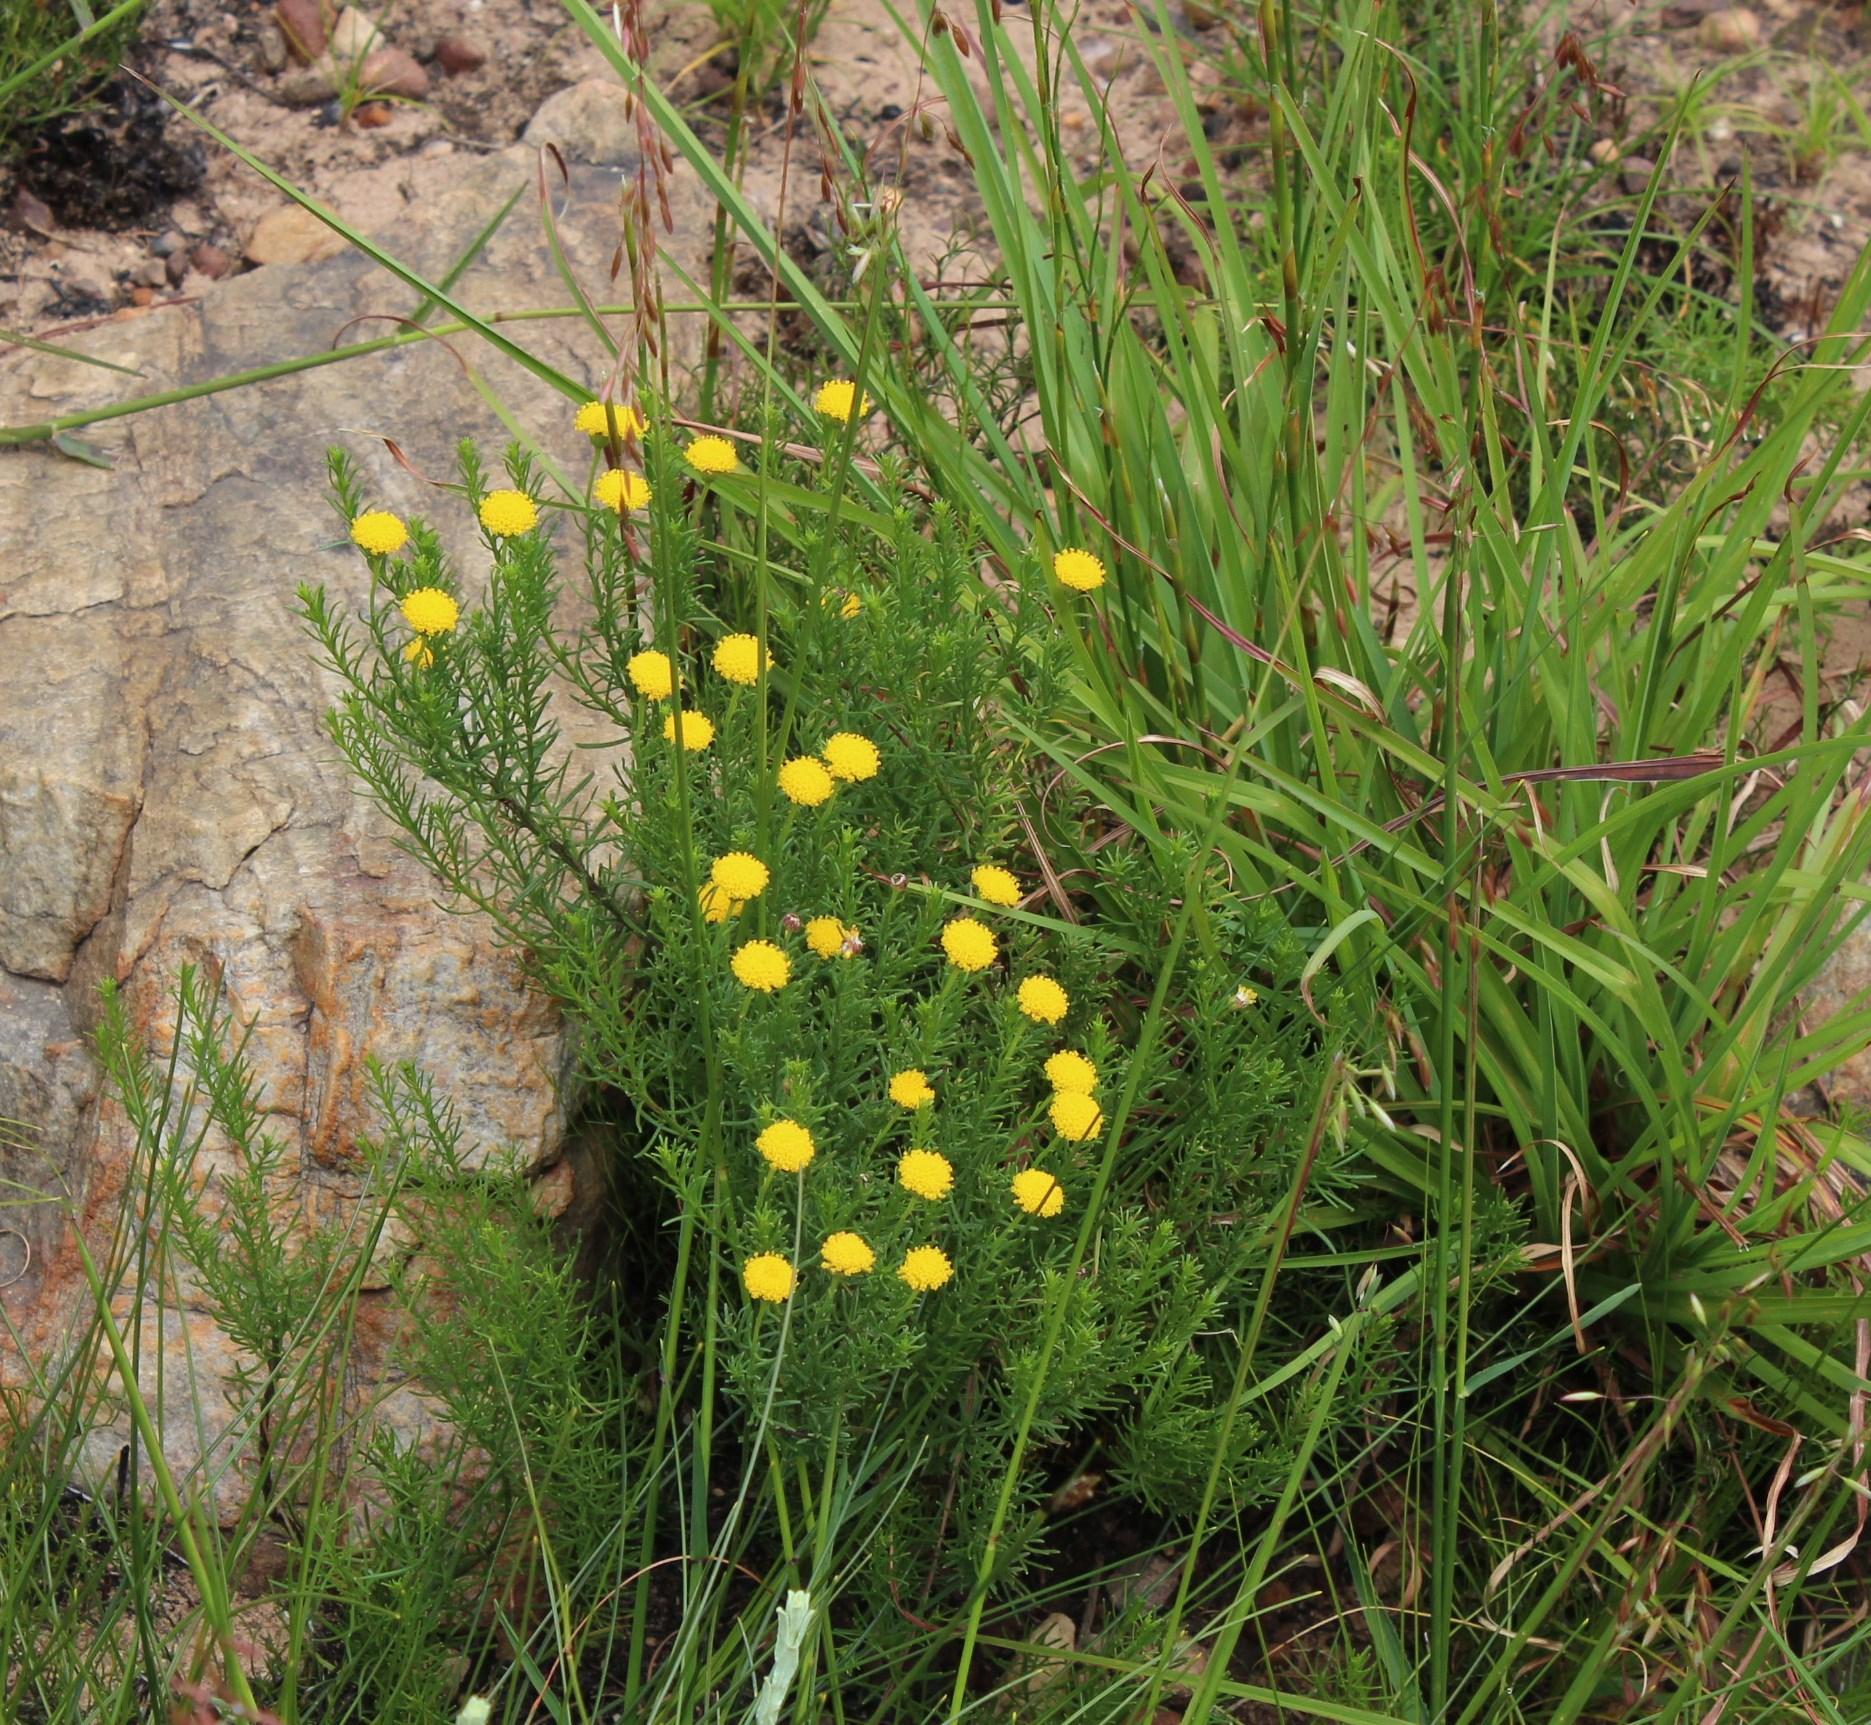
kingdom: Plantae
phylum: Tracheophyta
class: Magnoliopsida
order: Asterales
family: Asteraceae
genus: Chrysocoma
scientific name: Chrysocoma tridentata
